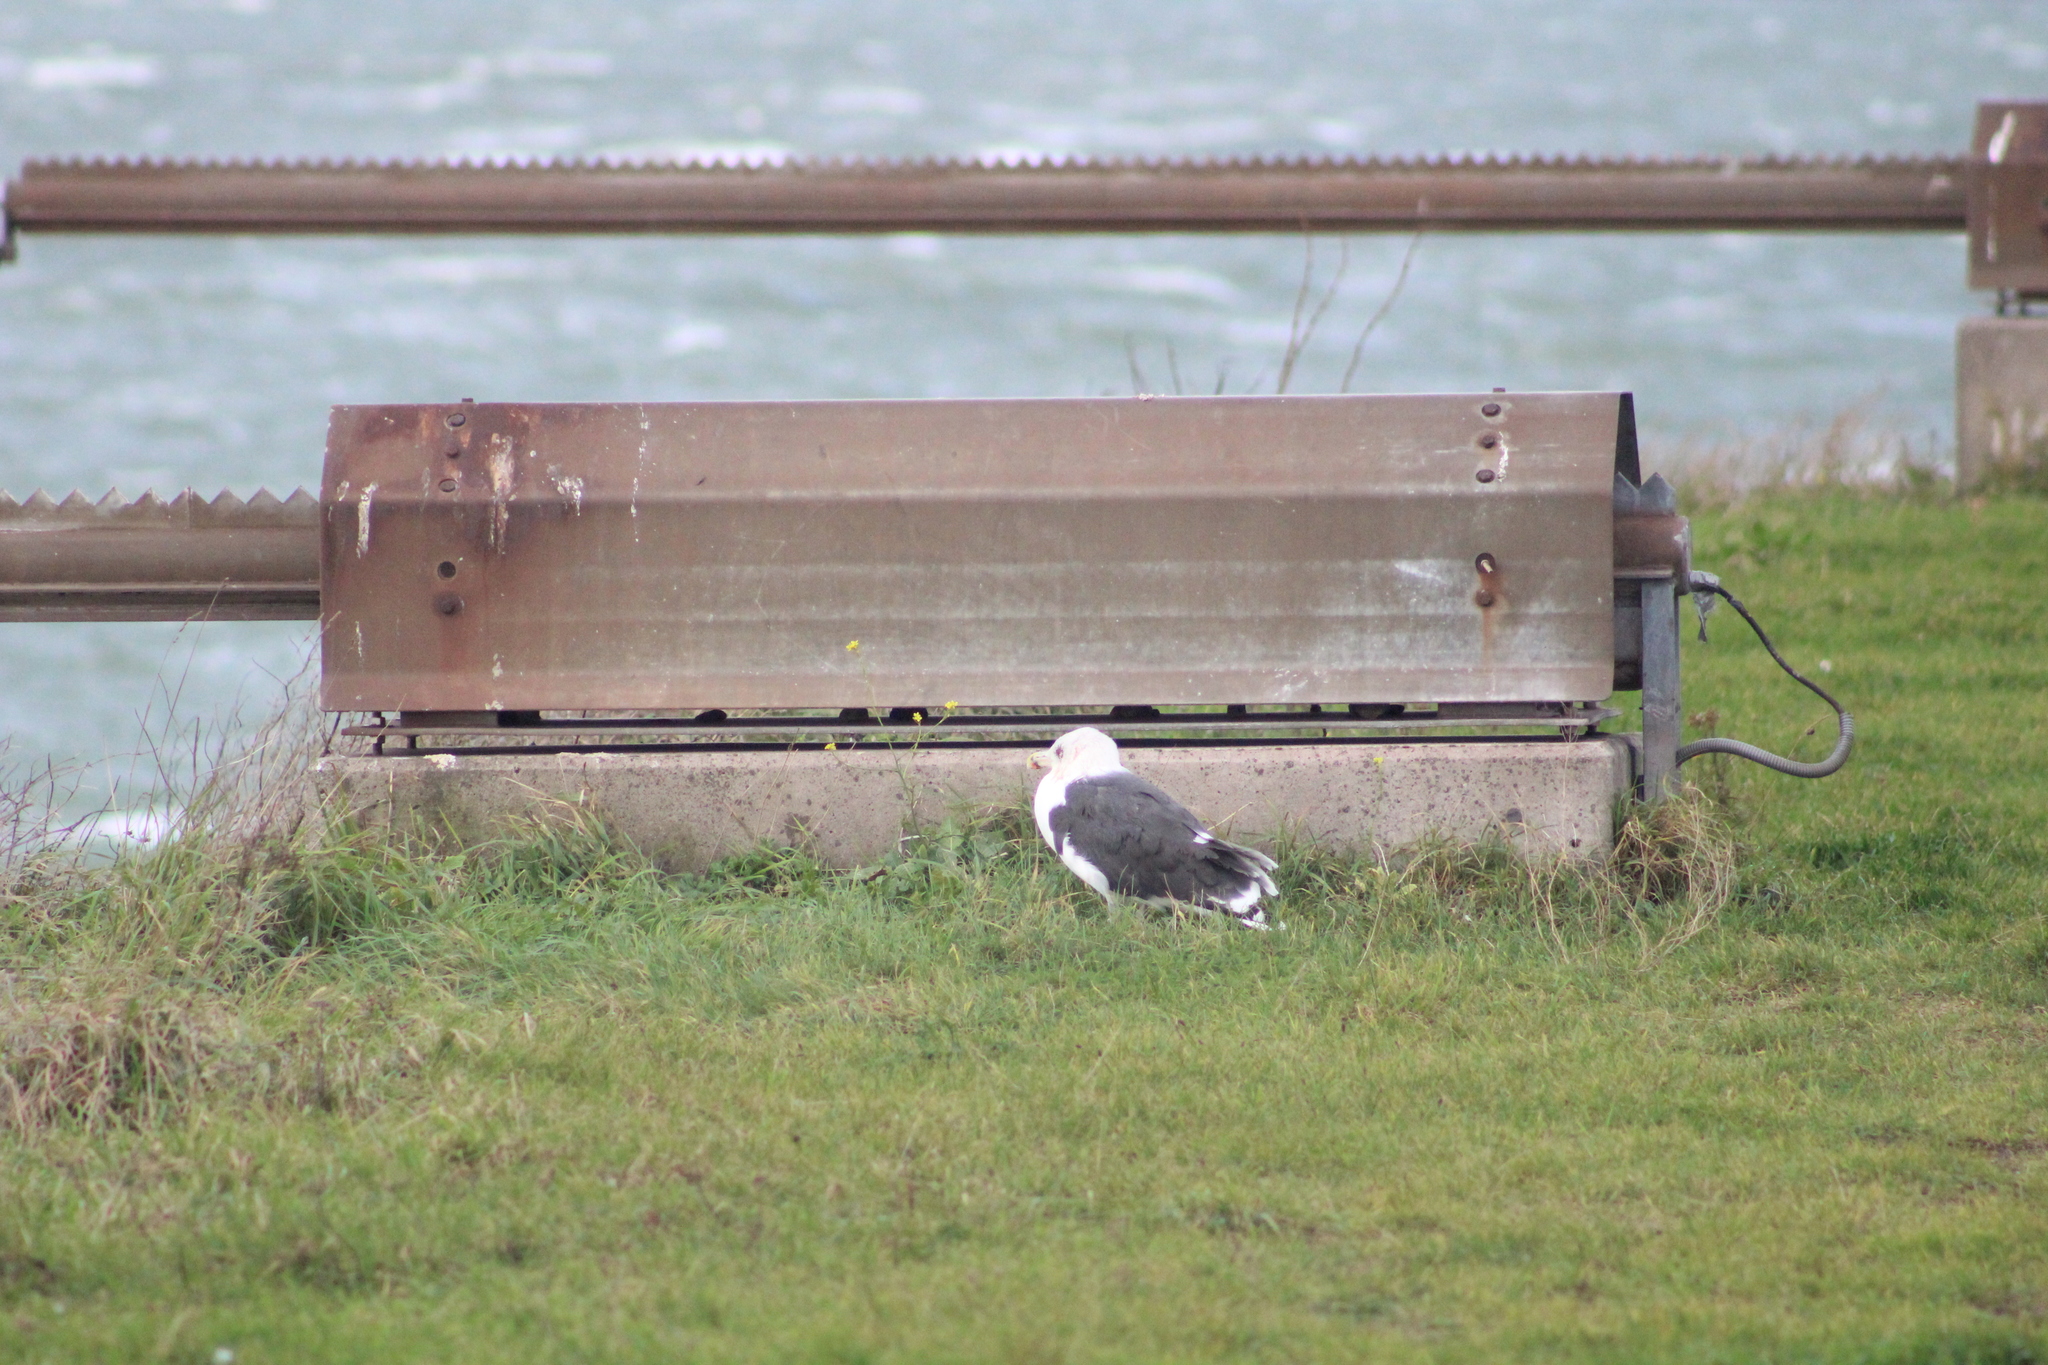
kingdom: Animalia
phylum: Chordata
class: Aves
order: Charadriiformes
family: Laridae
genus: Larus
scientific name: Larus marinus
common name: Great black-backed gull
